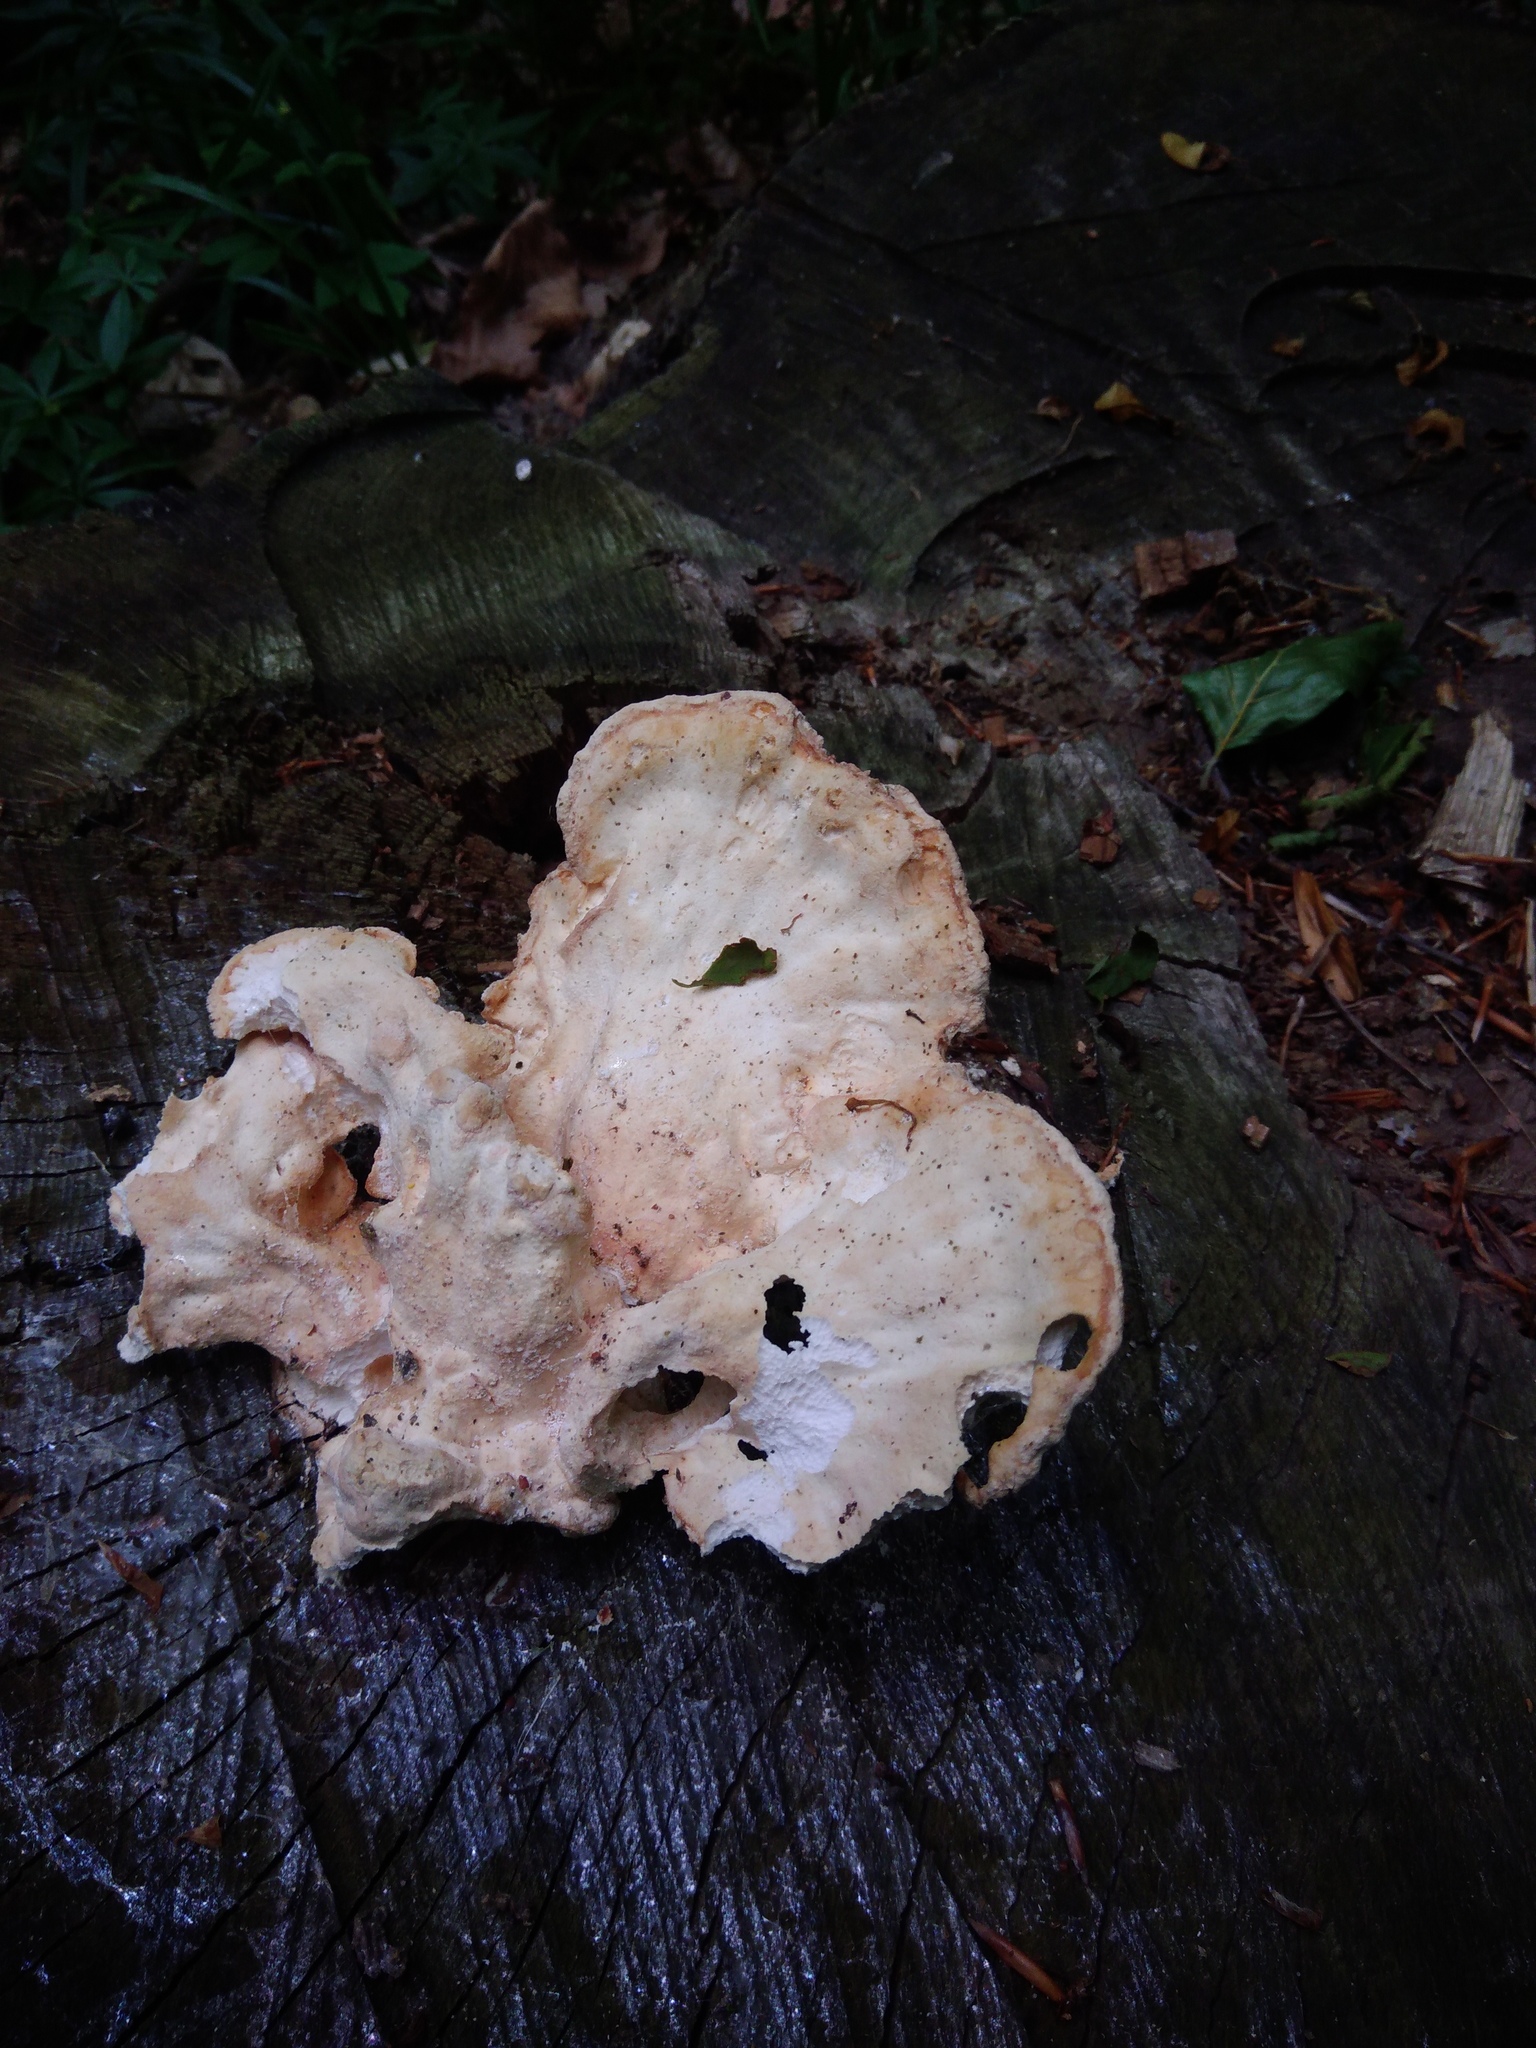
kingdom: Fungi
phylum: Basidiomycota
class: Agaricomycetes
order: Polyporales
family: Laetiporaceae
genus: Laetiporus
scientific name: Laetiporus sulphureus
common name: Chicken of the woods
